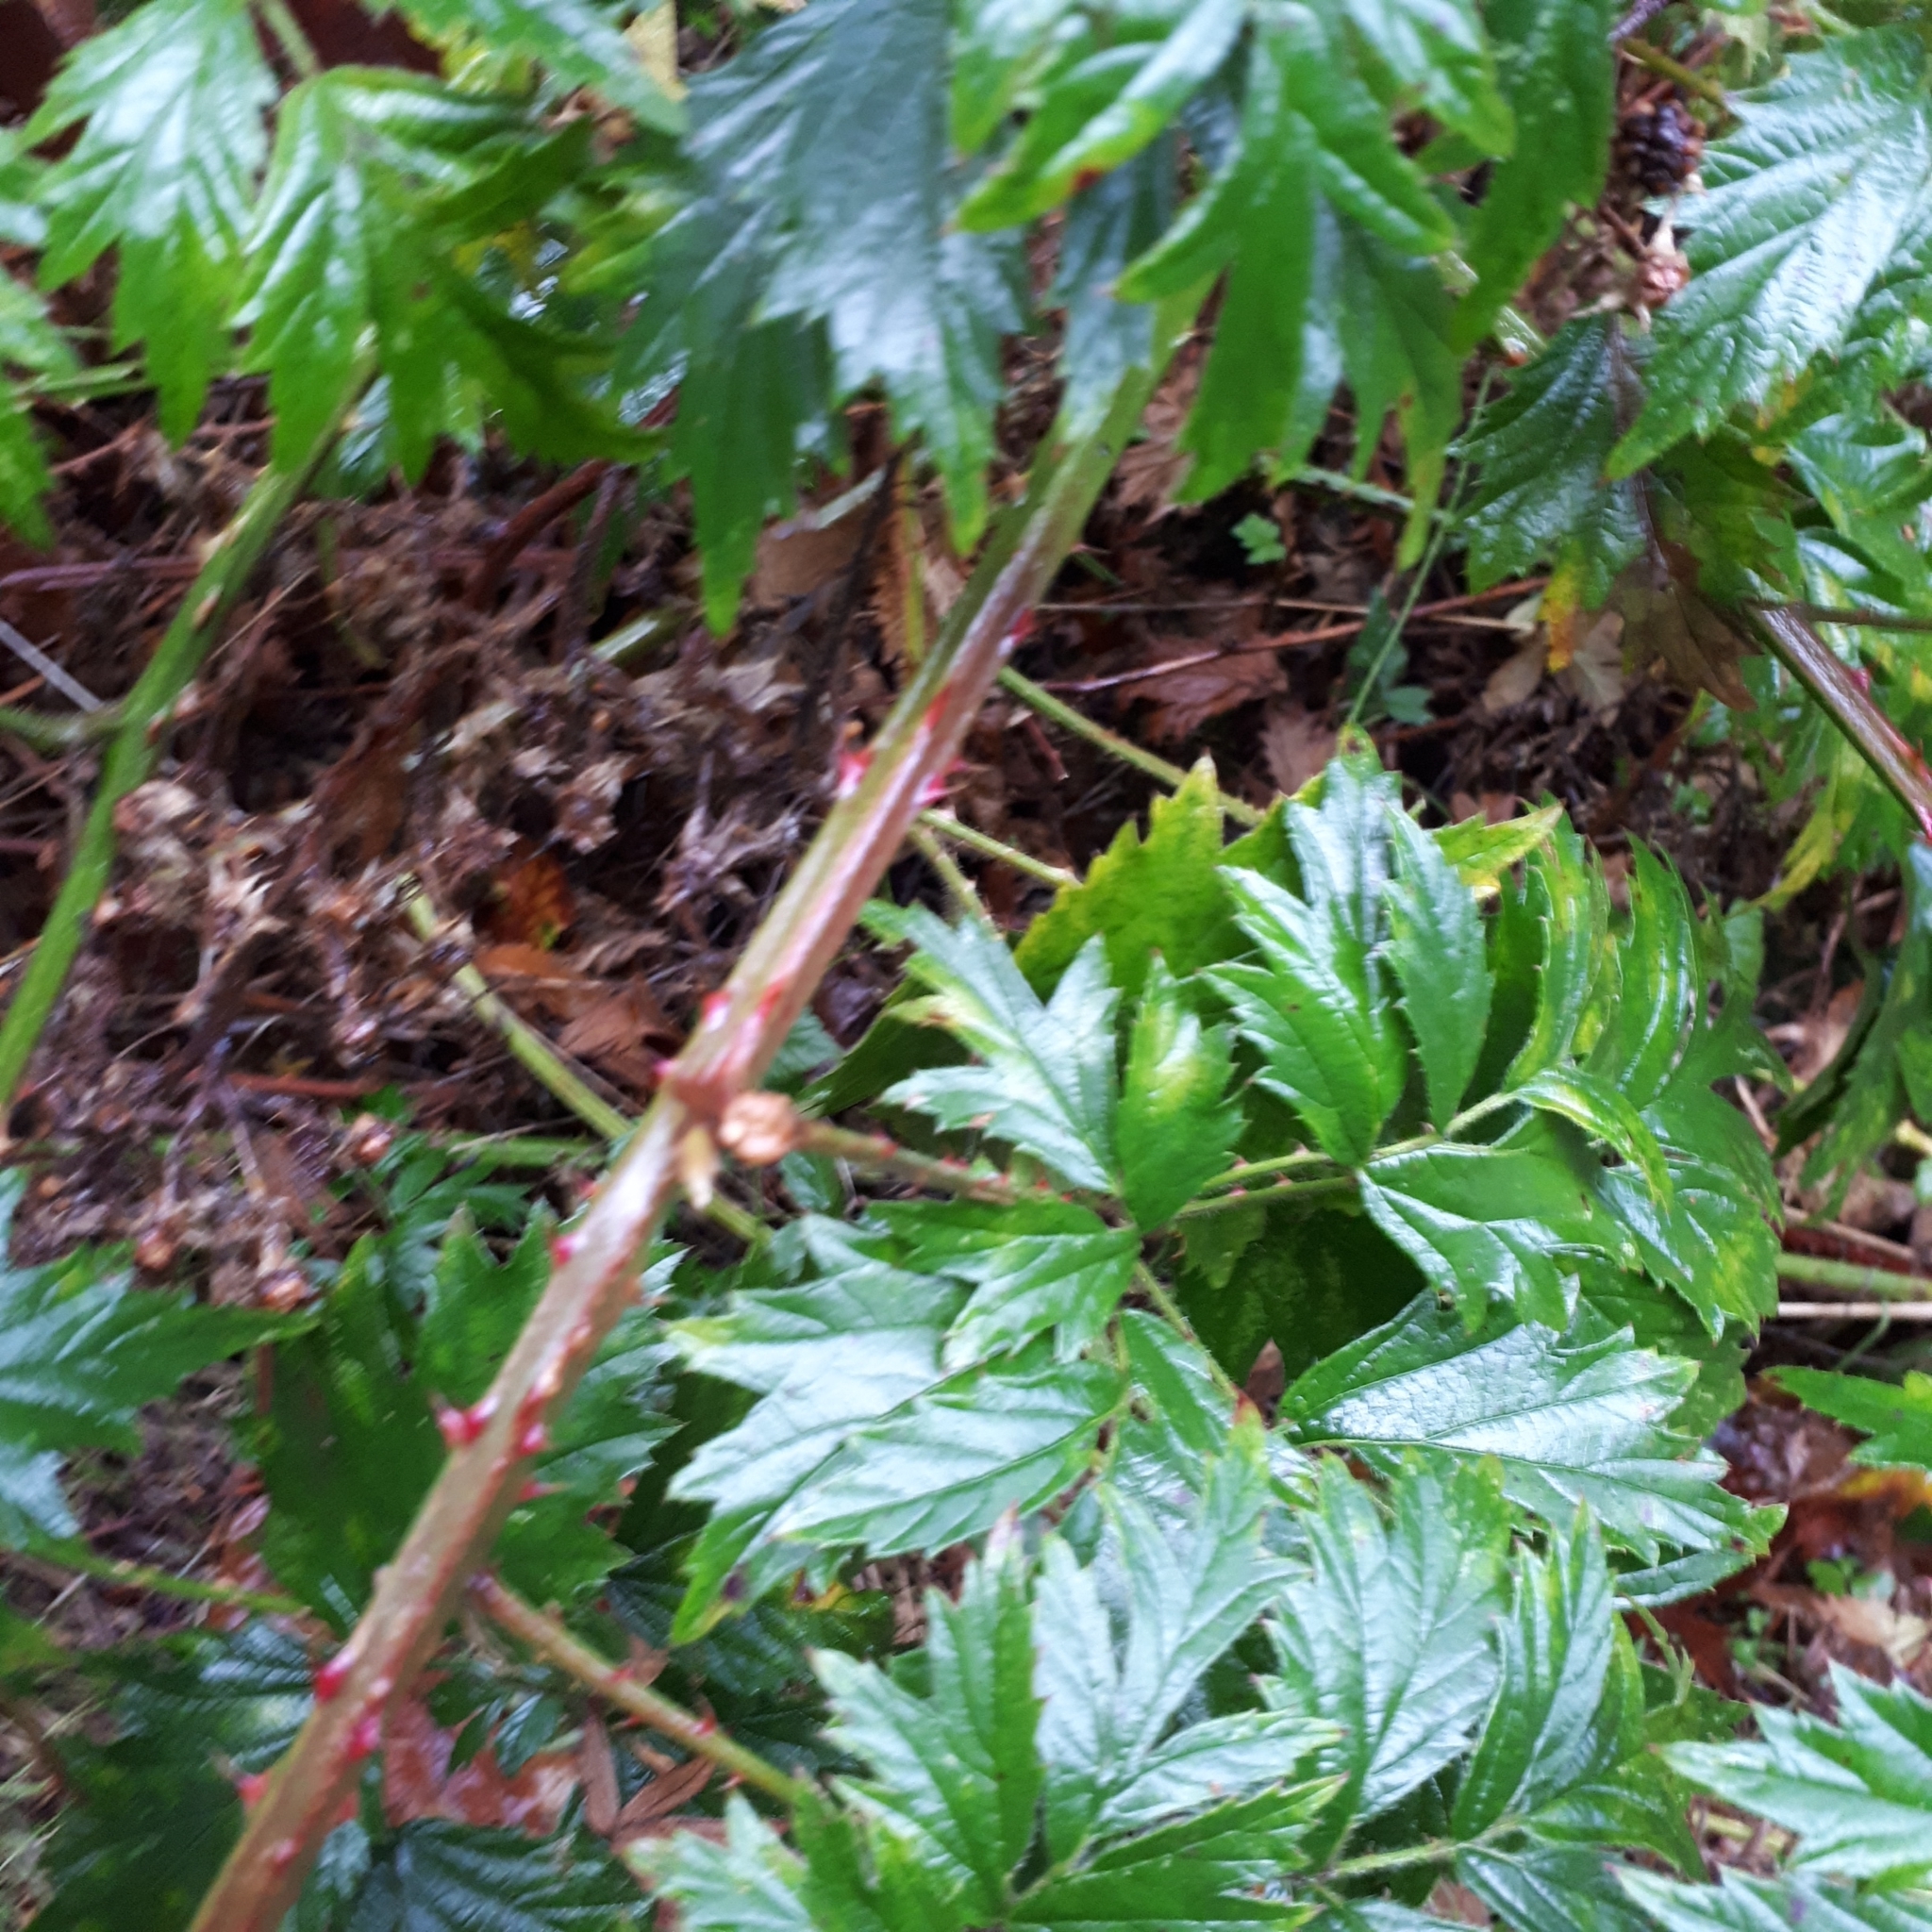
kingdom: Plantae
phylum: Tracheophyta
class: Magnoliopsida
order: Rosales
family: Rosaceae
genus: Rubus
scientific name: Rubus laciniatus
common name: Evergreen blackberry
